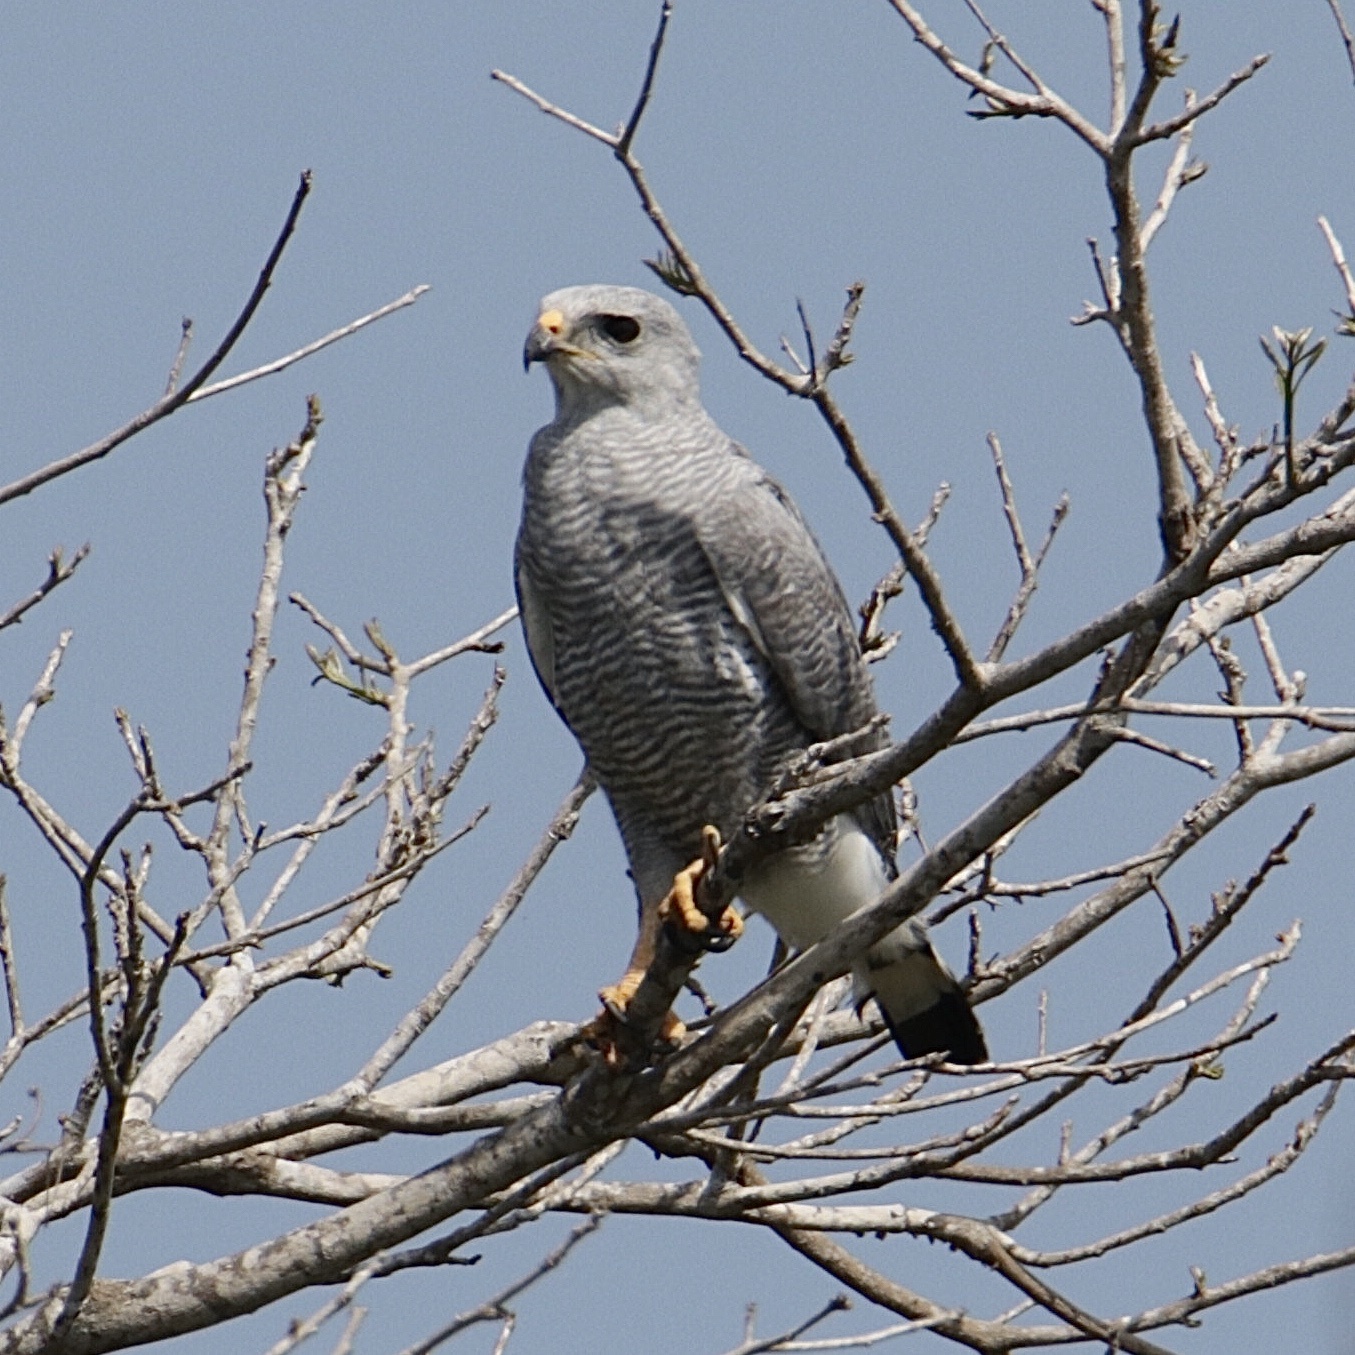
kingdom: Animalia
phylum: Chordata
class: Aves
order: Accipitriformes
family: Accipitridae
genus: Buteo
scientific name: Buteo nitidus
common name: Grey-lined hawk
